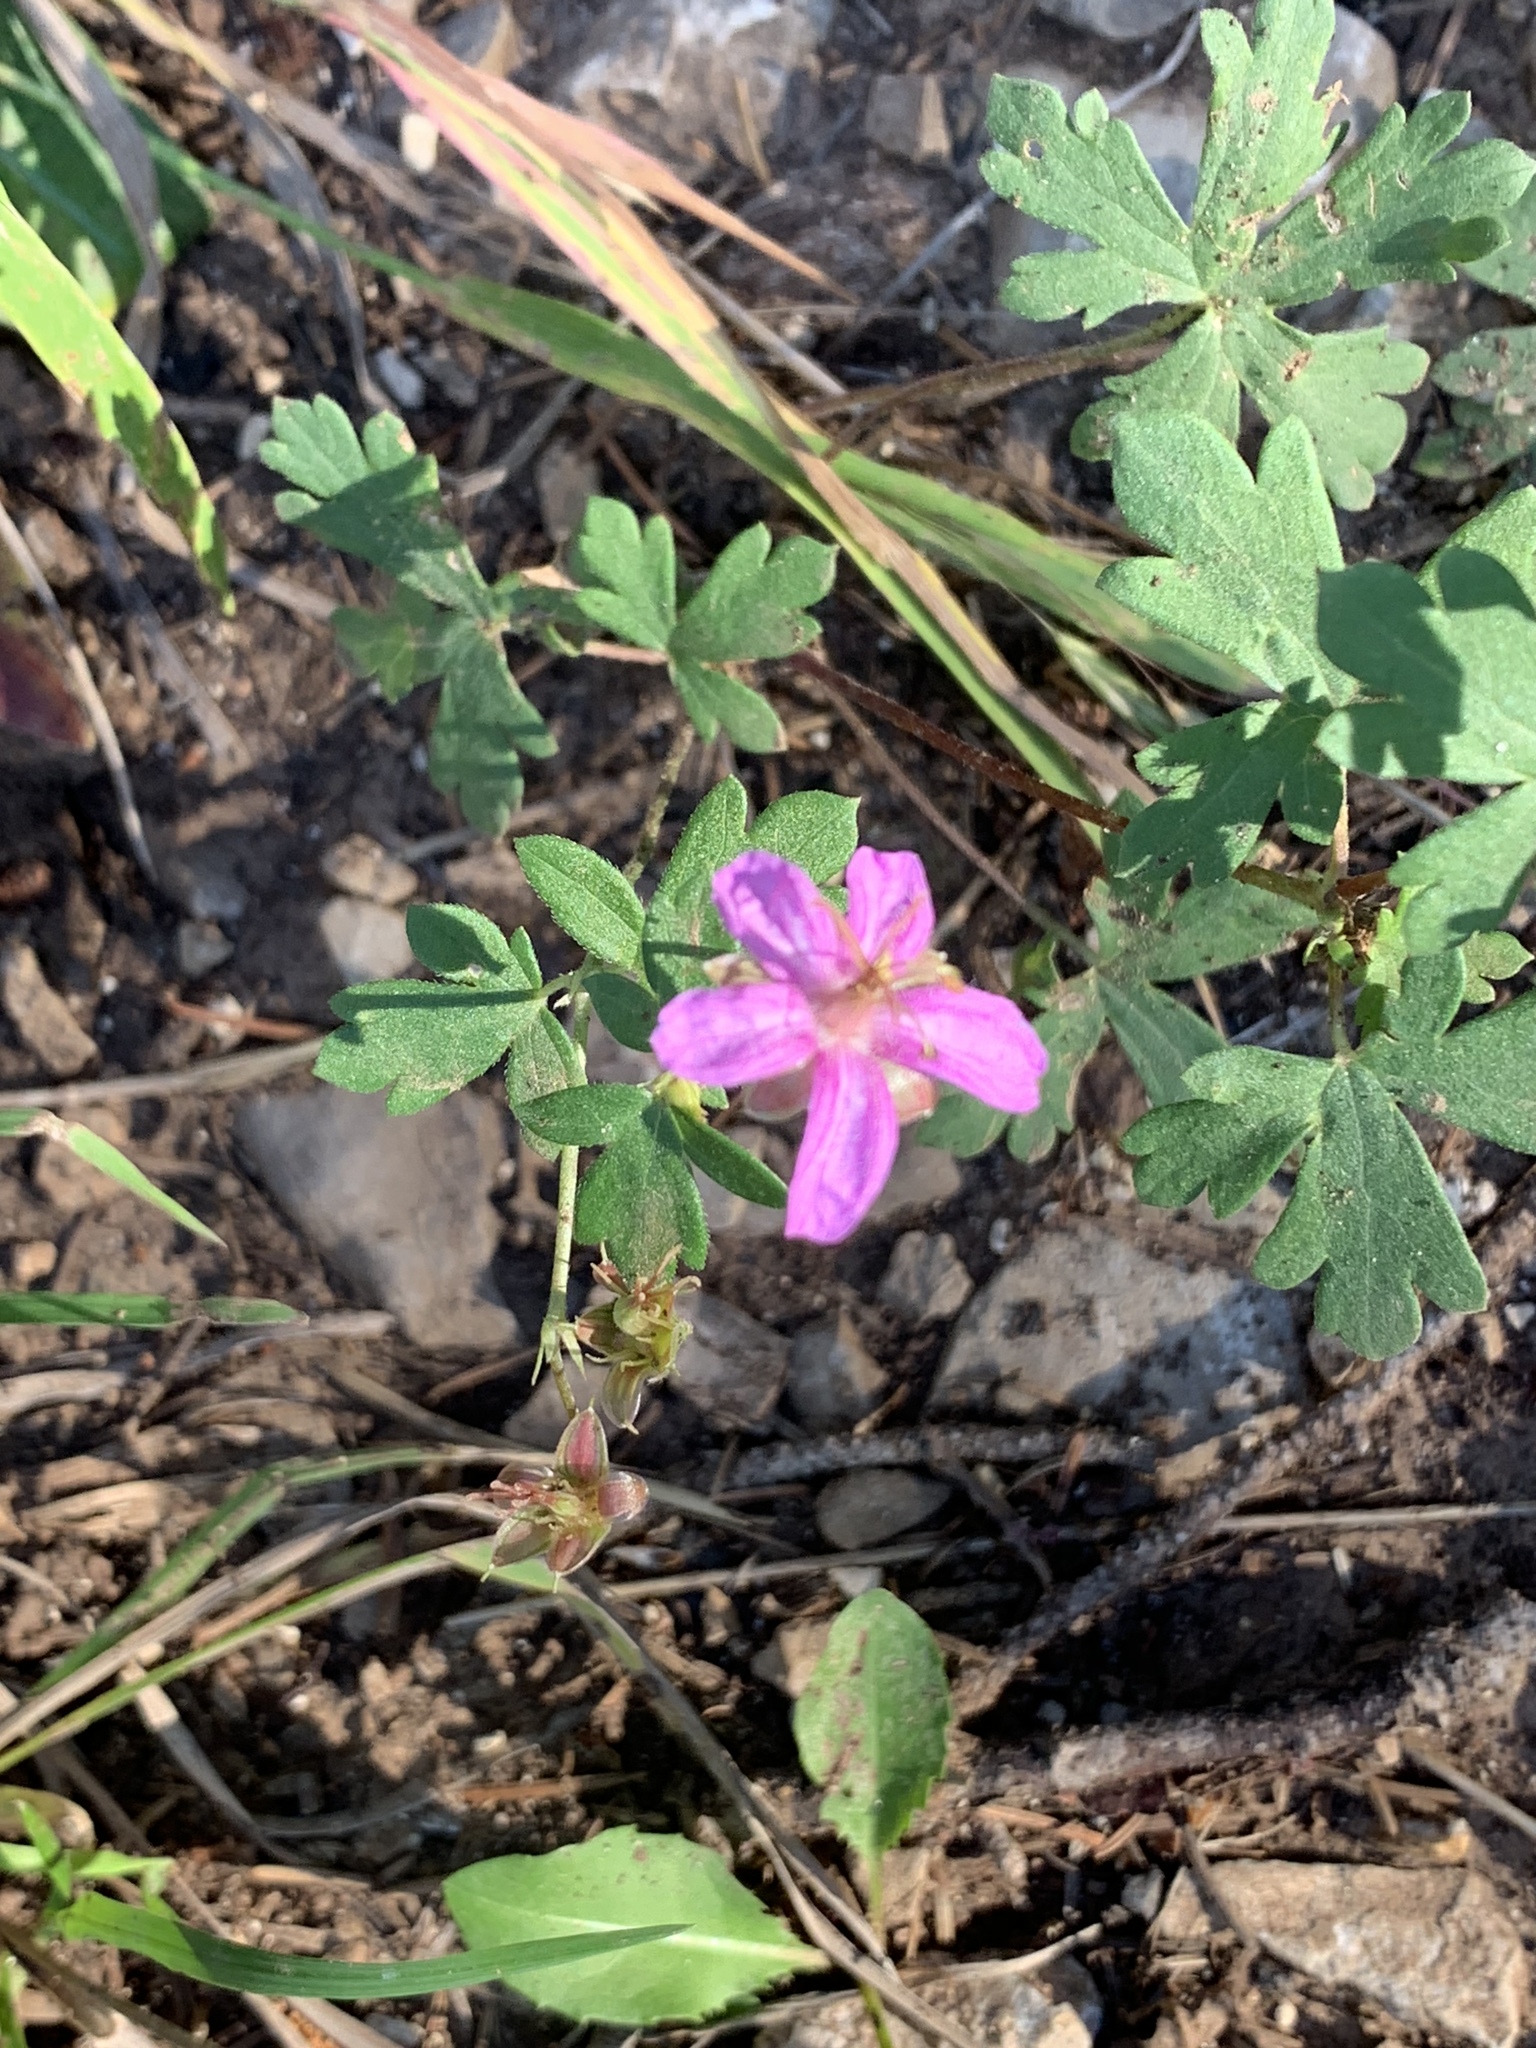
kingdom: Plantae
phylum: Tracheophyta
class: Magnoliopsida
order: Geraniales
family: Geraniaceae
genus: Geranium
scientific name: Geranium caespitosum
